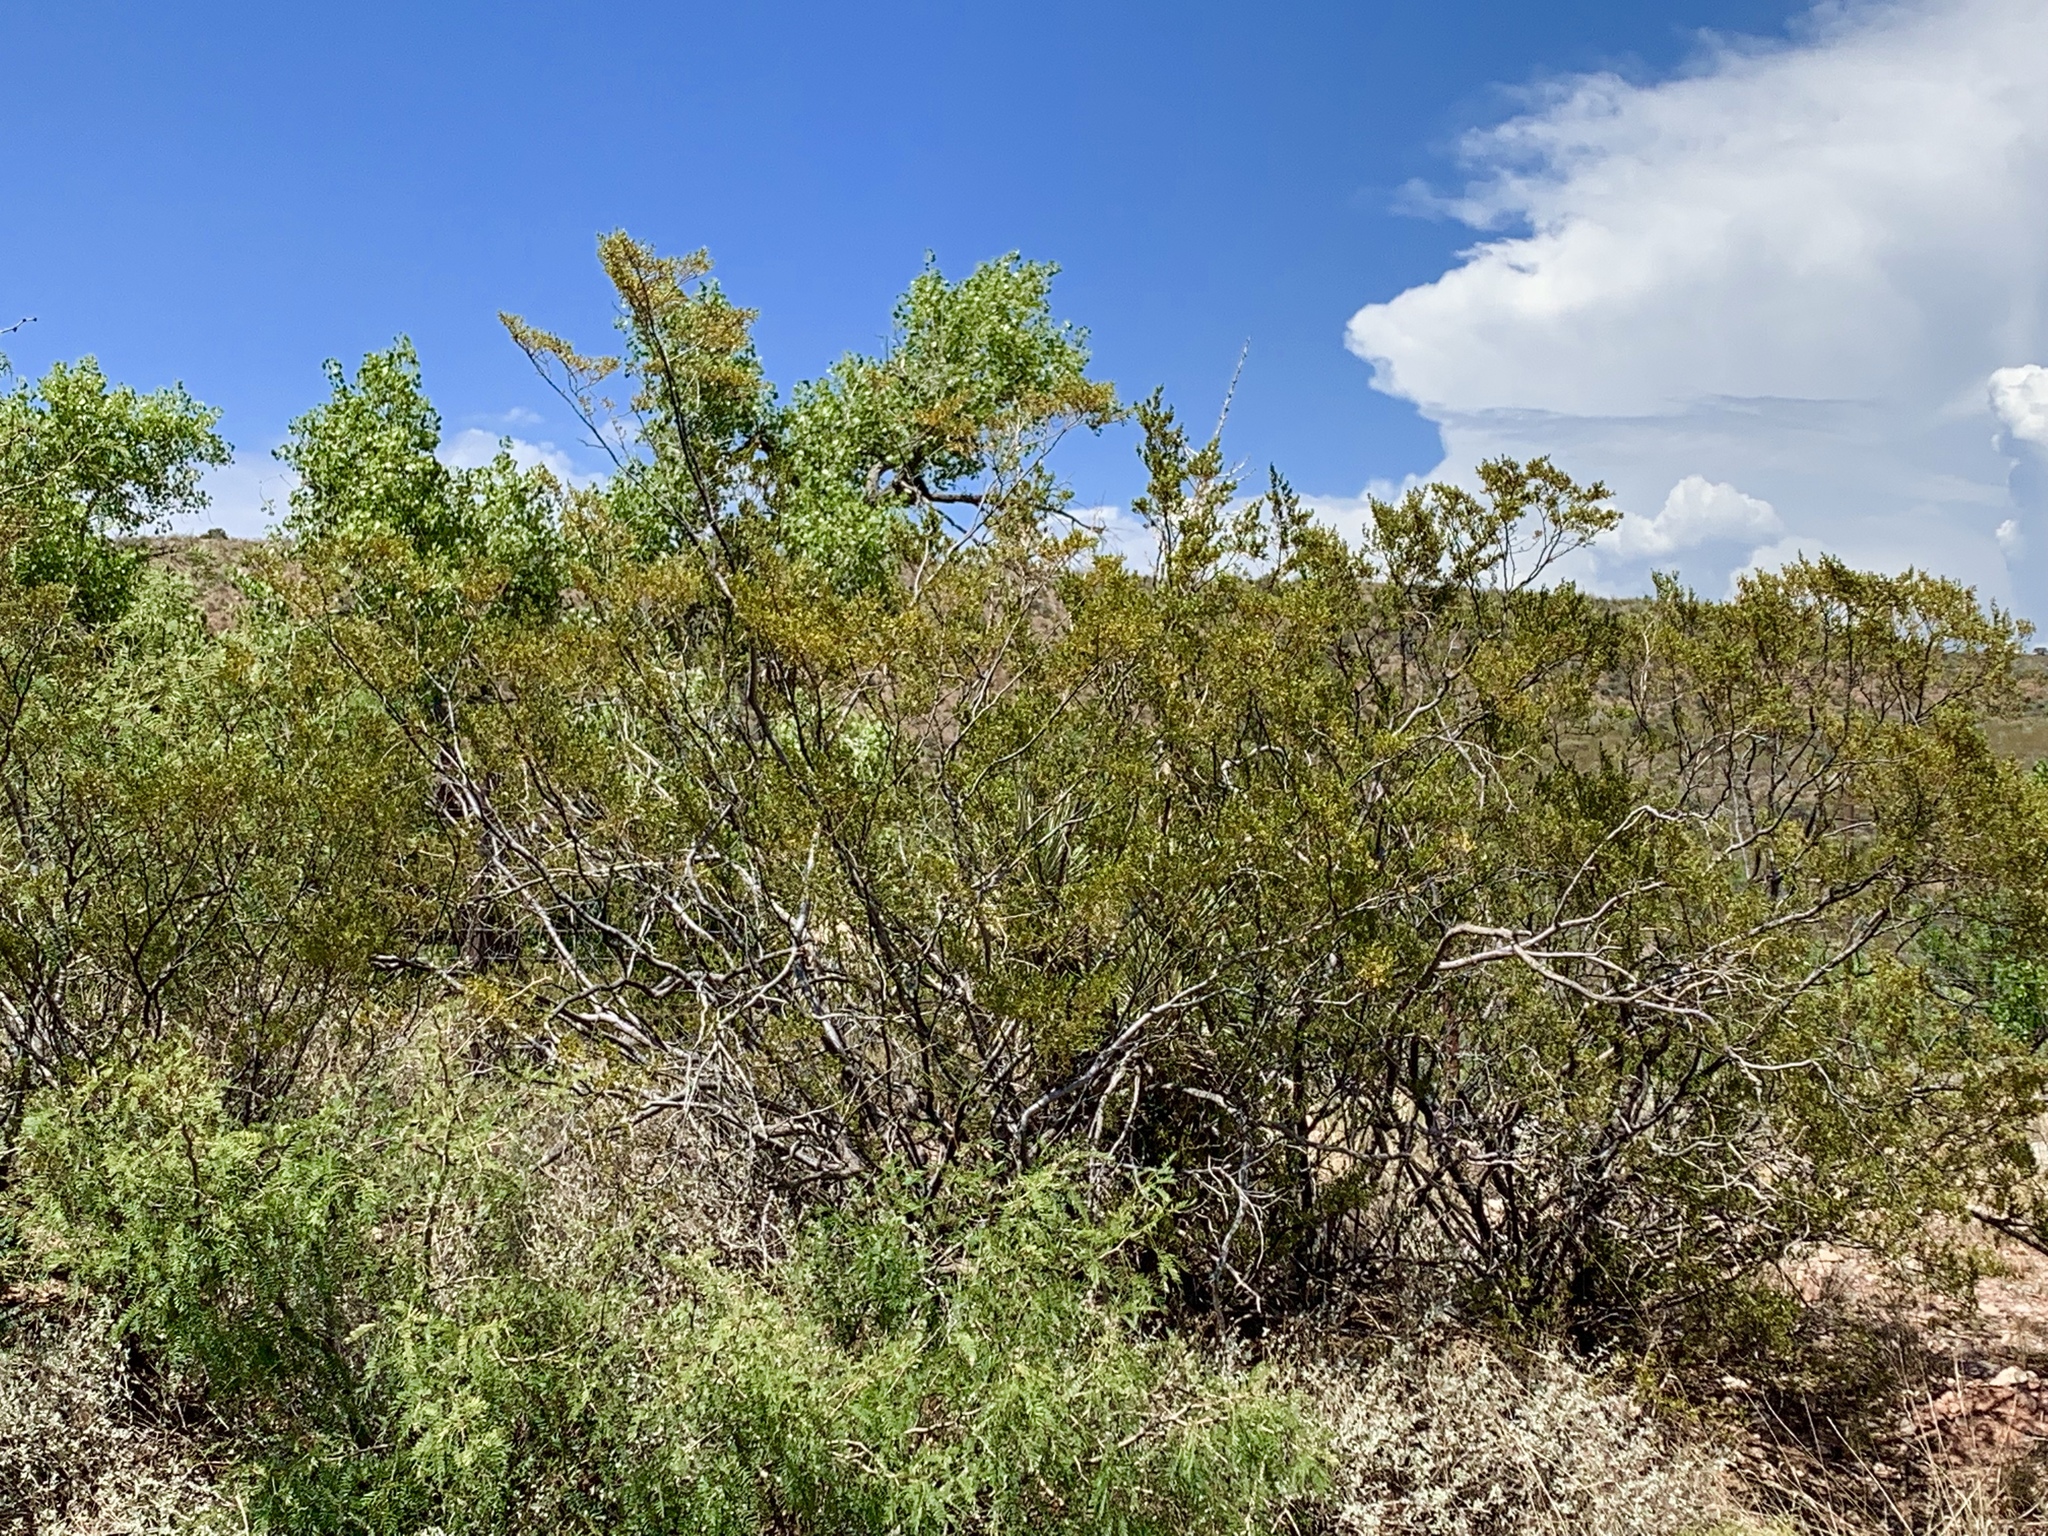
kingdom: Plantae
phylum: Tracheophyta
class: Magnoliopsida
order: Zygophyllales
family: Zygophyllaceae
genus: Larrea
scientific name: Larrea tridentata
